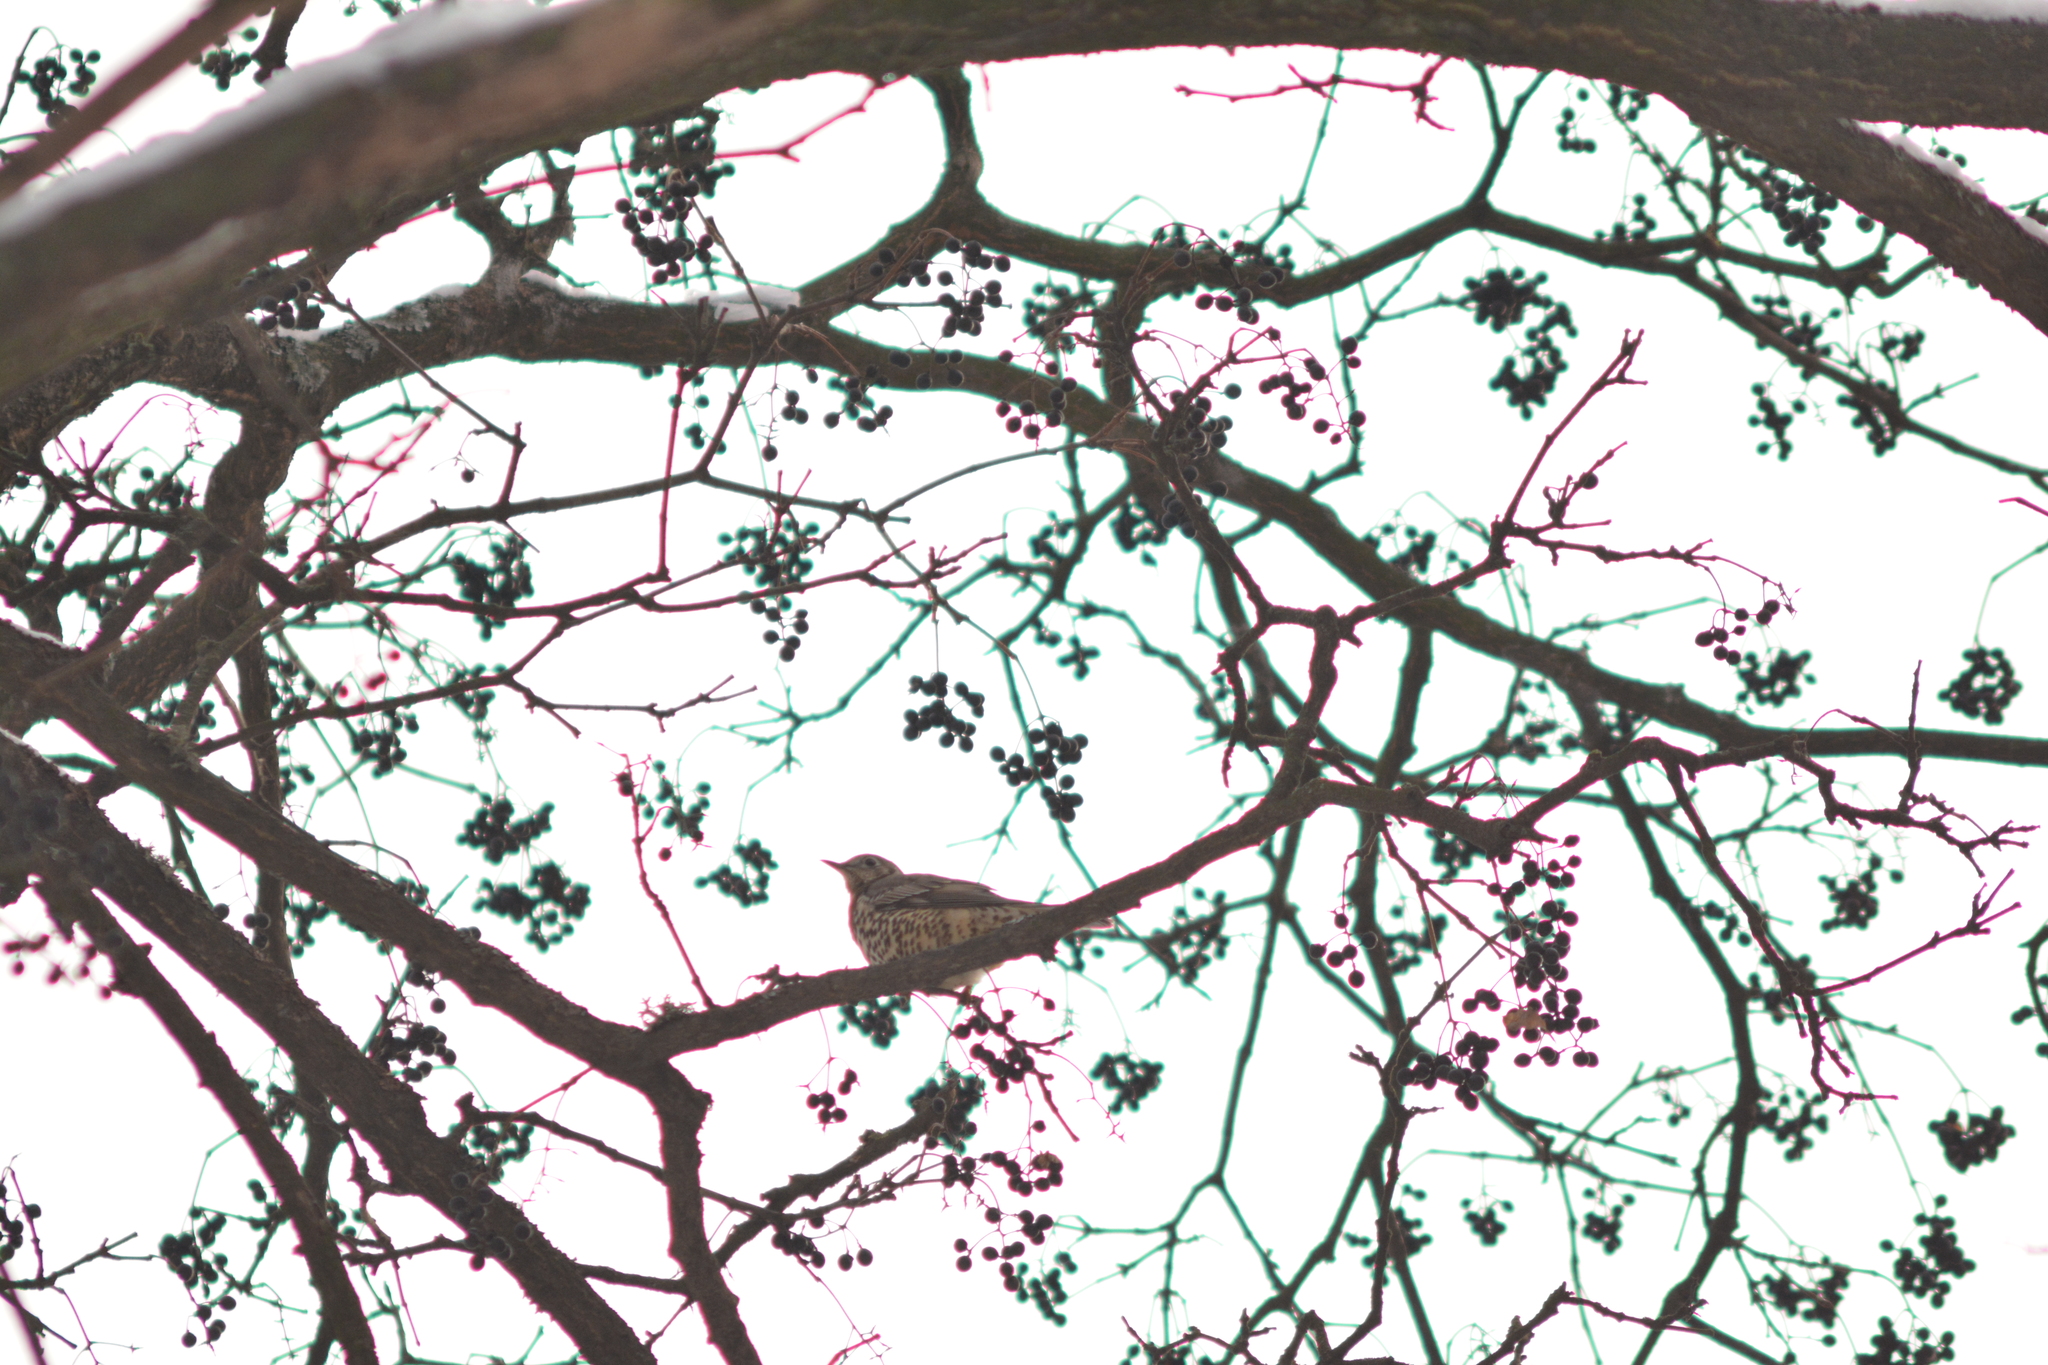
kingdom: Animalia
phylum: Chordata
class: Aves
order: Passeriformes
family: Turdidae
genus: Turdus
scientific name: Turdus viscivorus
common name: Mistle thrush
